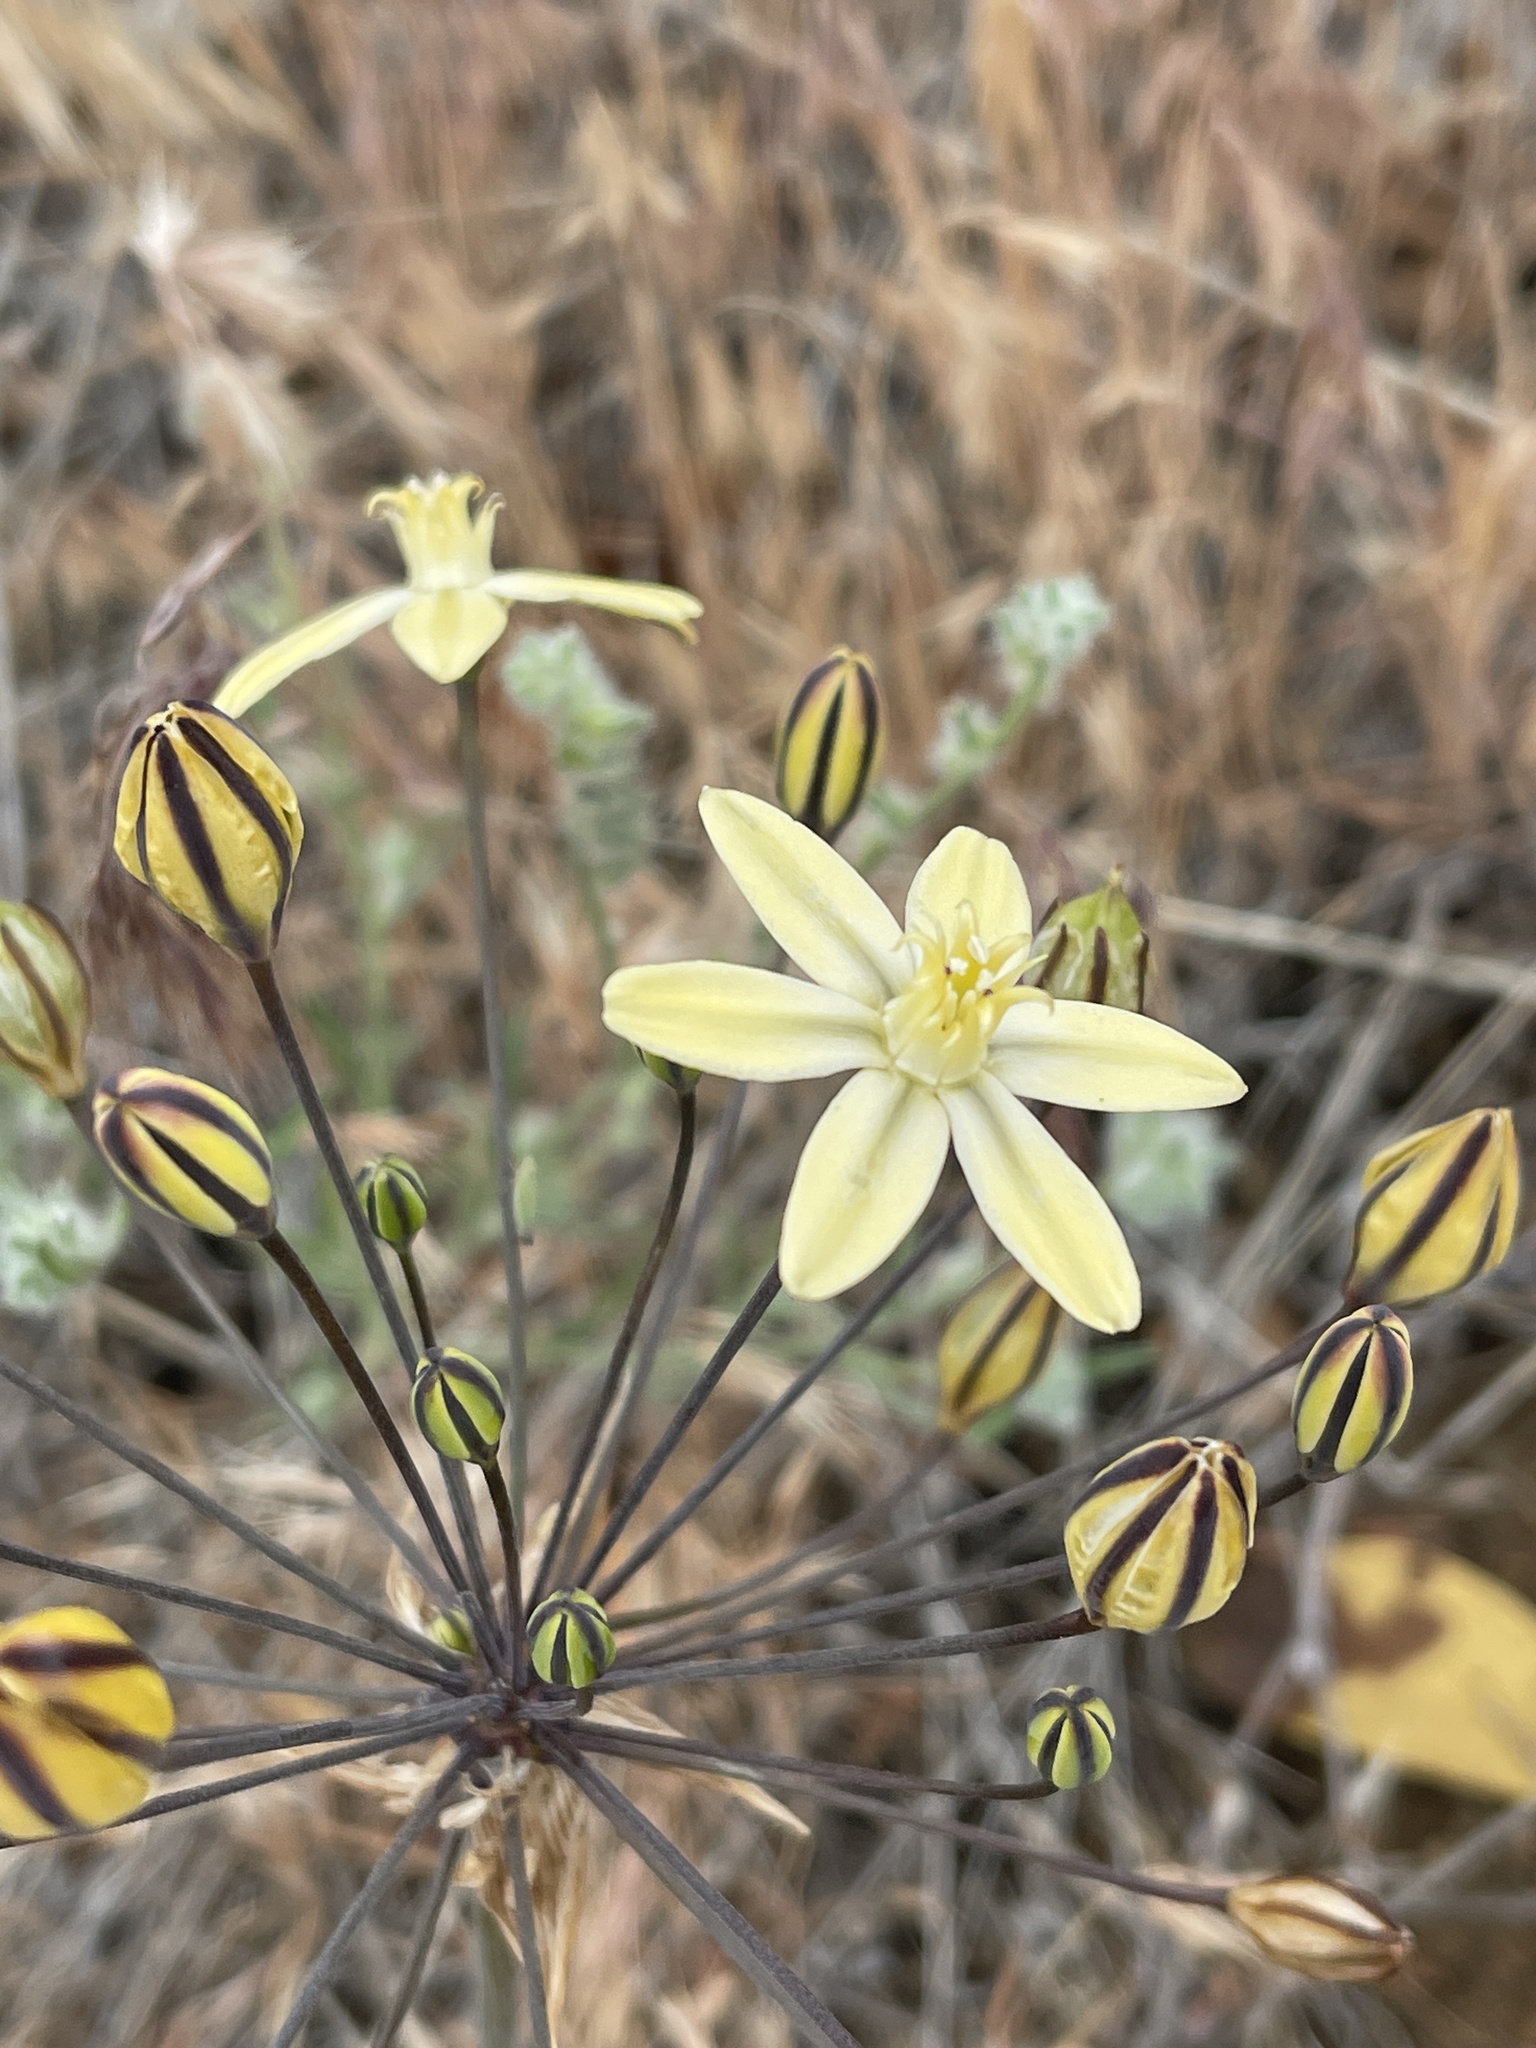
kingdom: Plantae
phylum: Tracheophyta
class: Liliopsida
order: Asparagales
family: Asparagaceae
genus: Triteleia
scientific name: Triteleia ixioides
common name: Yellow-brodiaea
